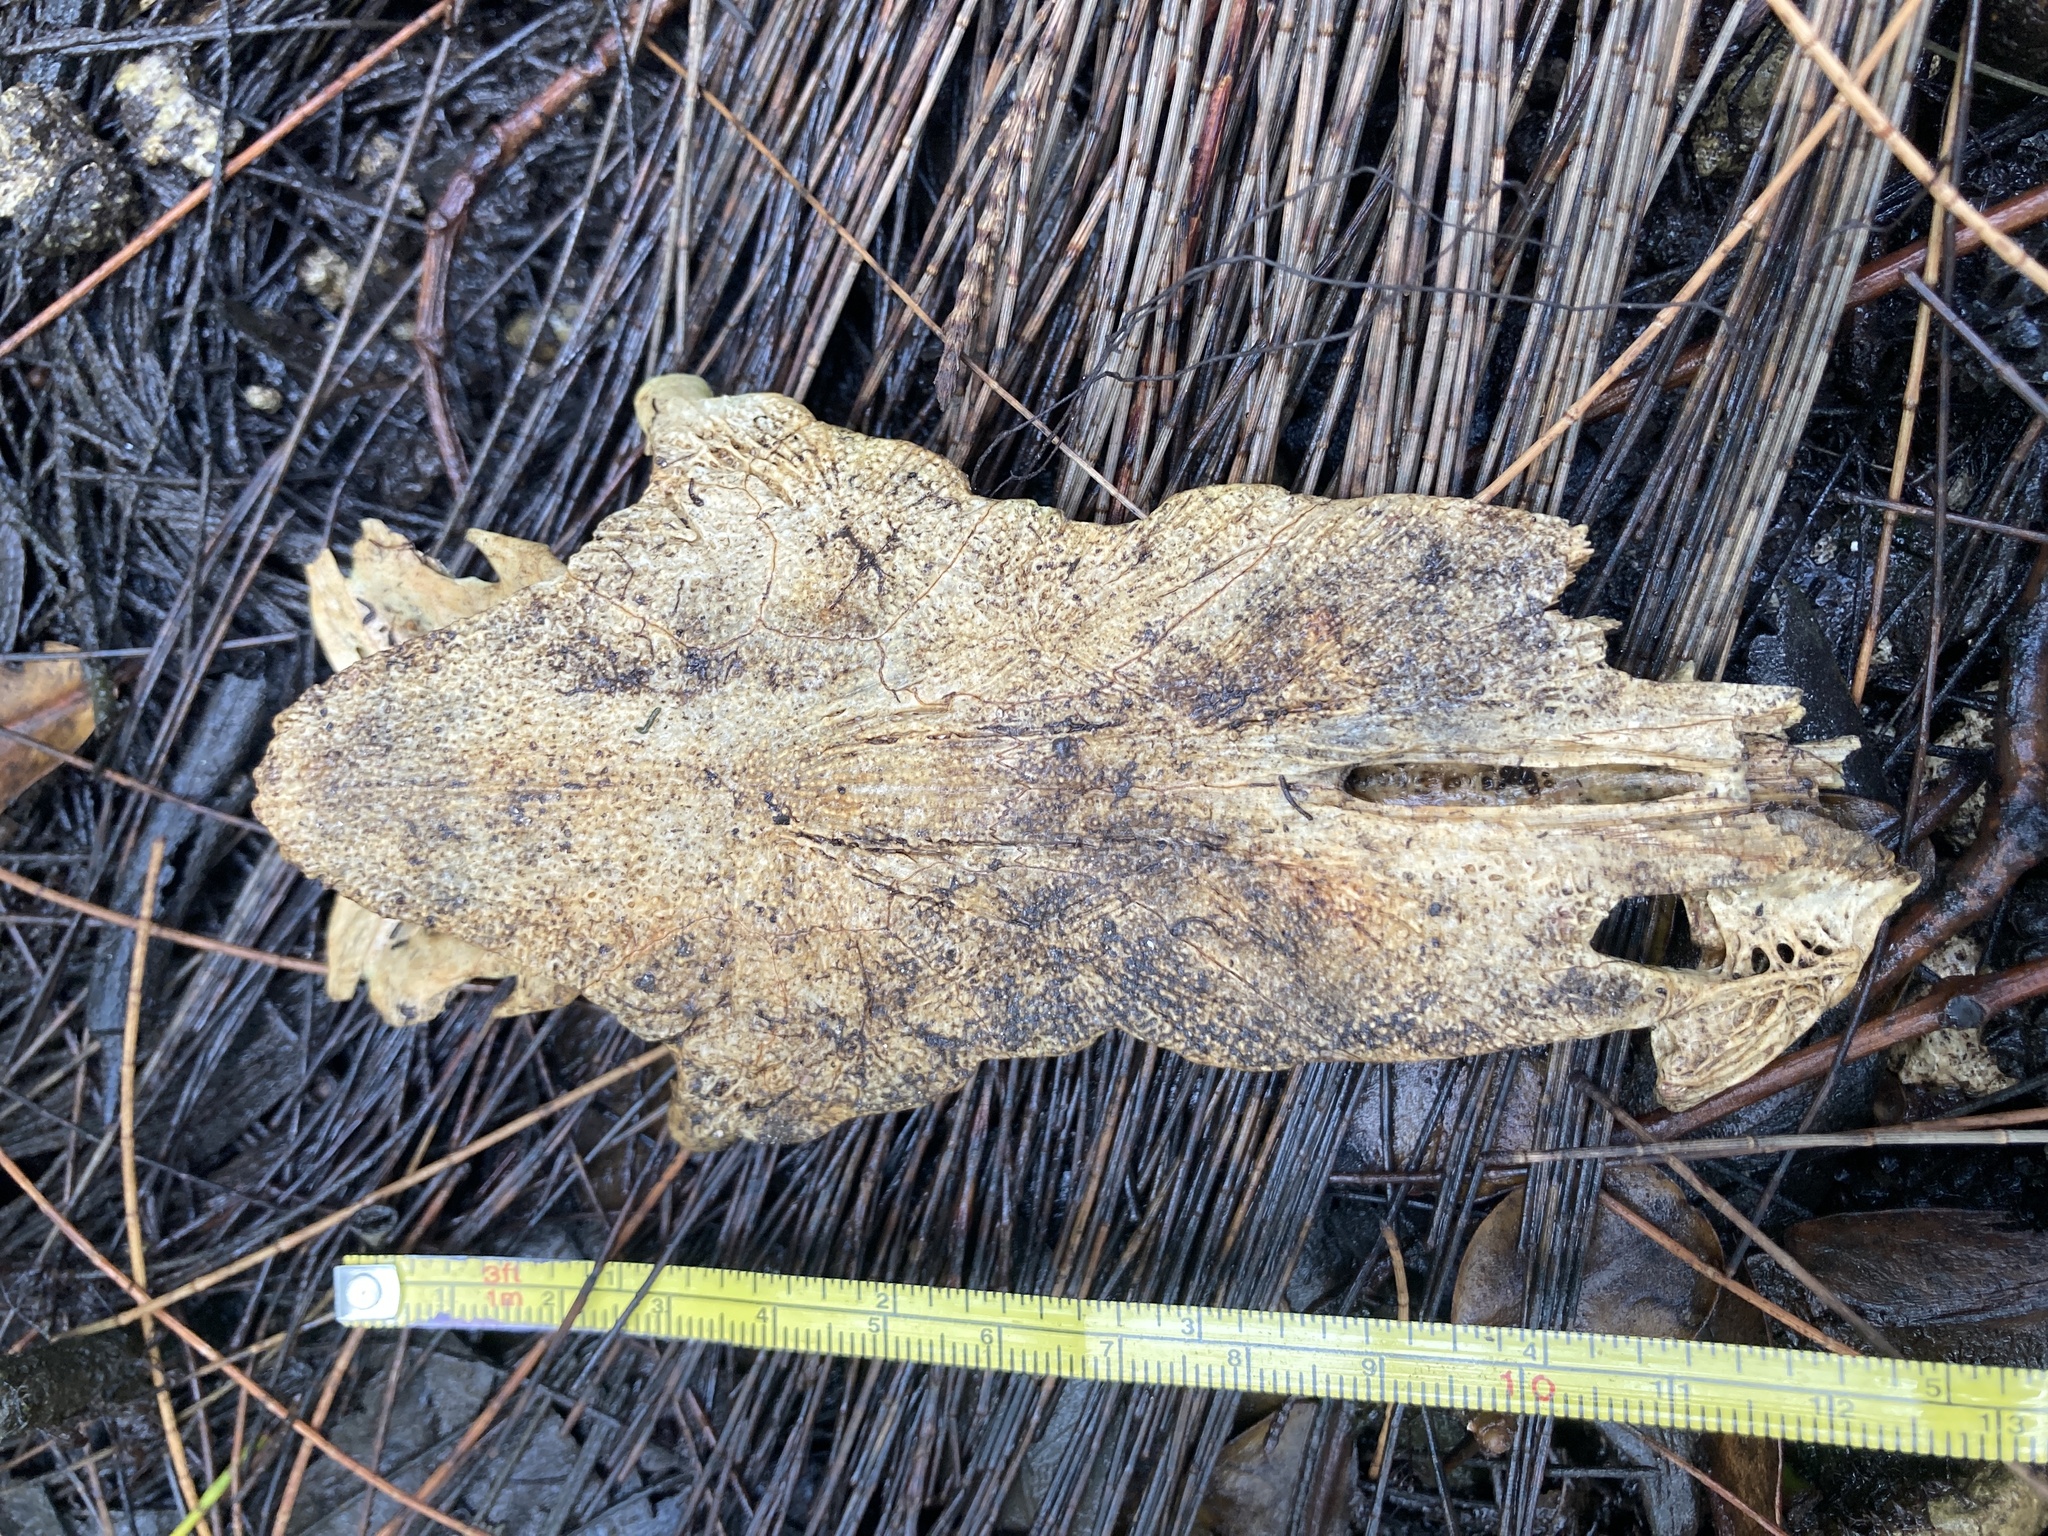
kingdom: Animalia
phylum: Chordata
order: Siluriformes
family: Ariidae
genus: Ariopsis
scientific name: Ariopsis felis
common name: Hardhead catfish
